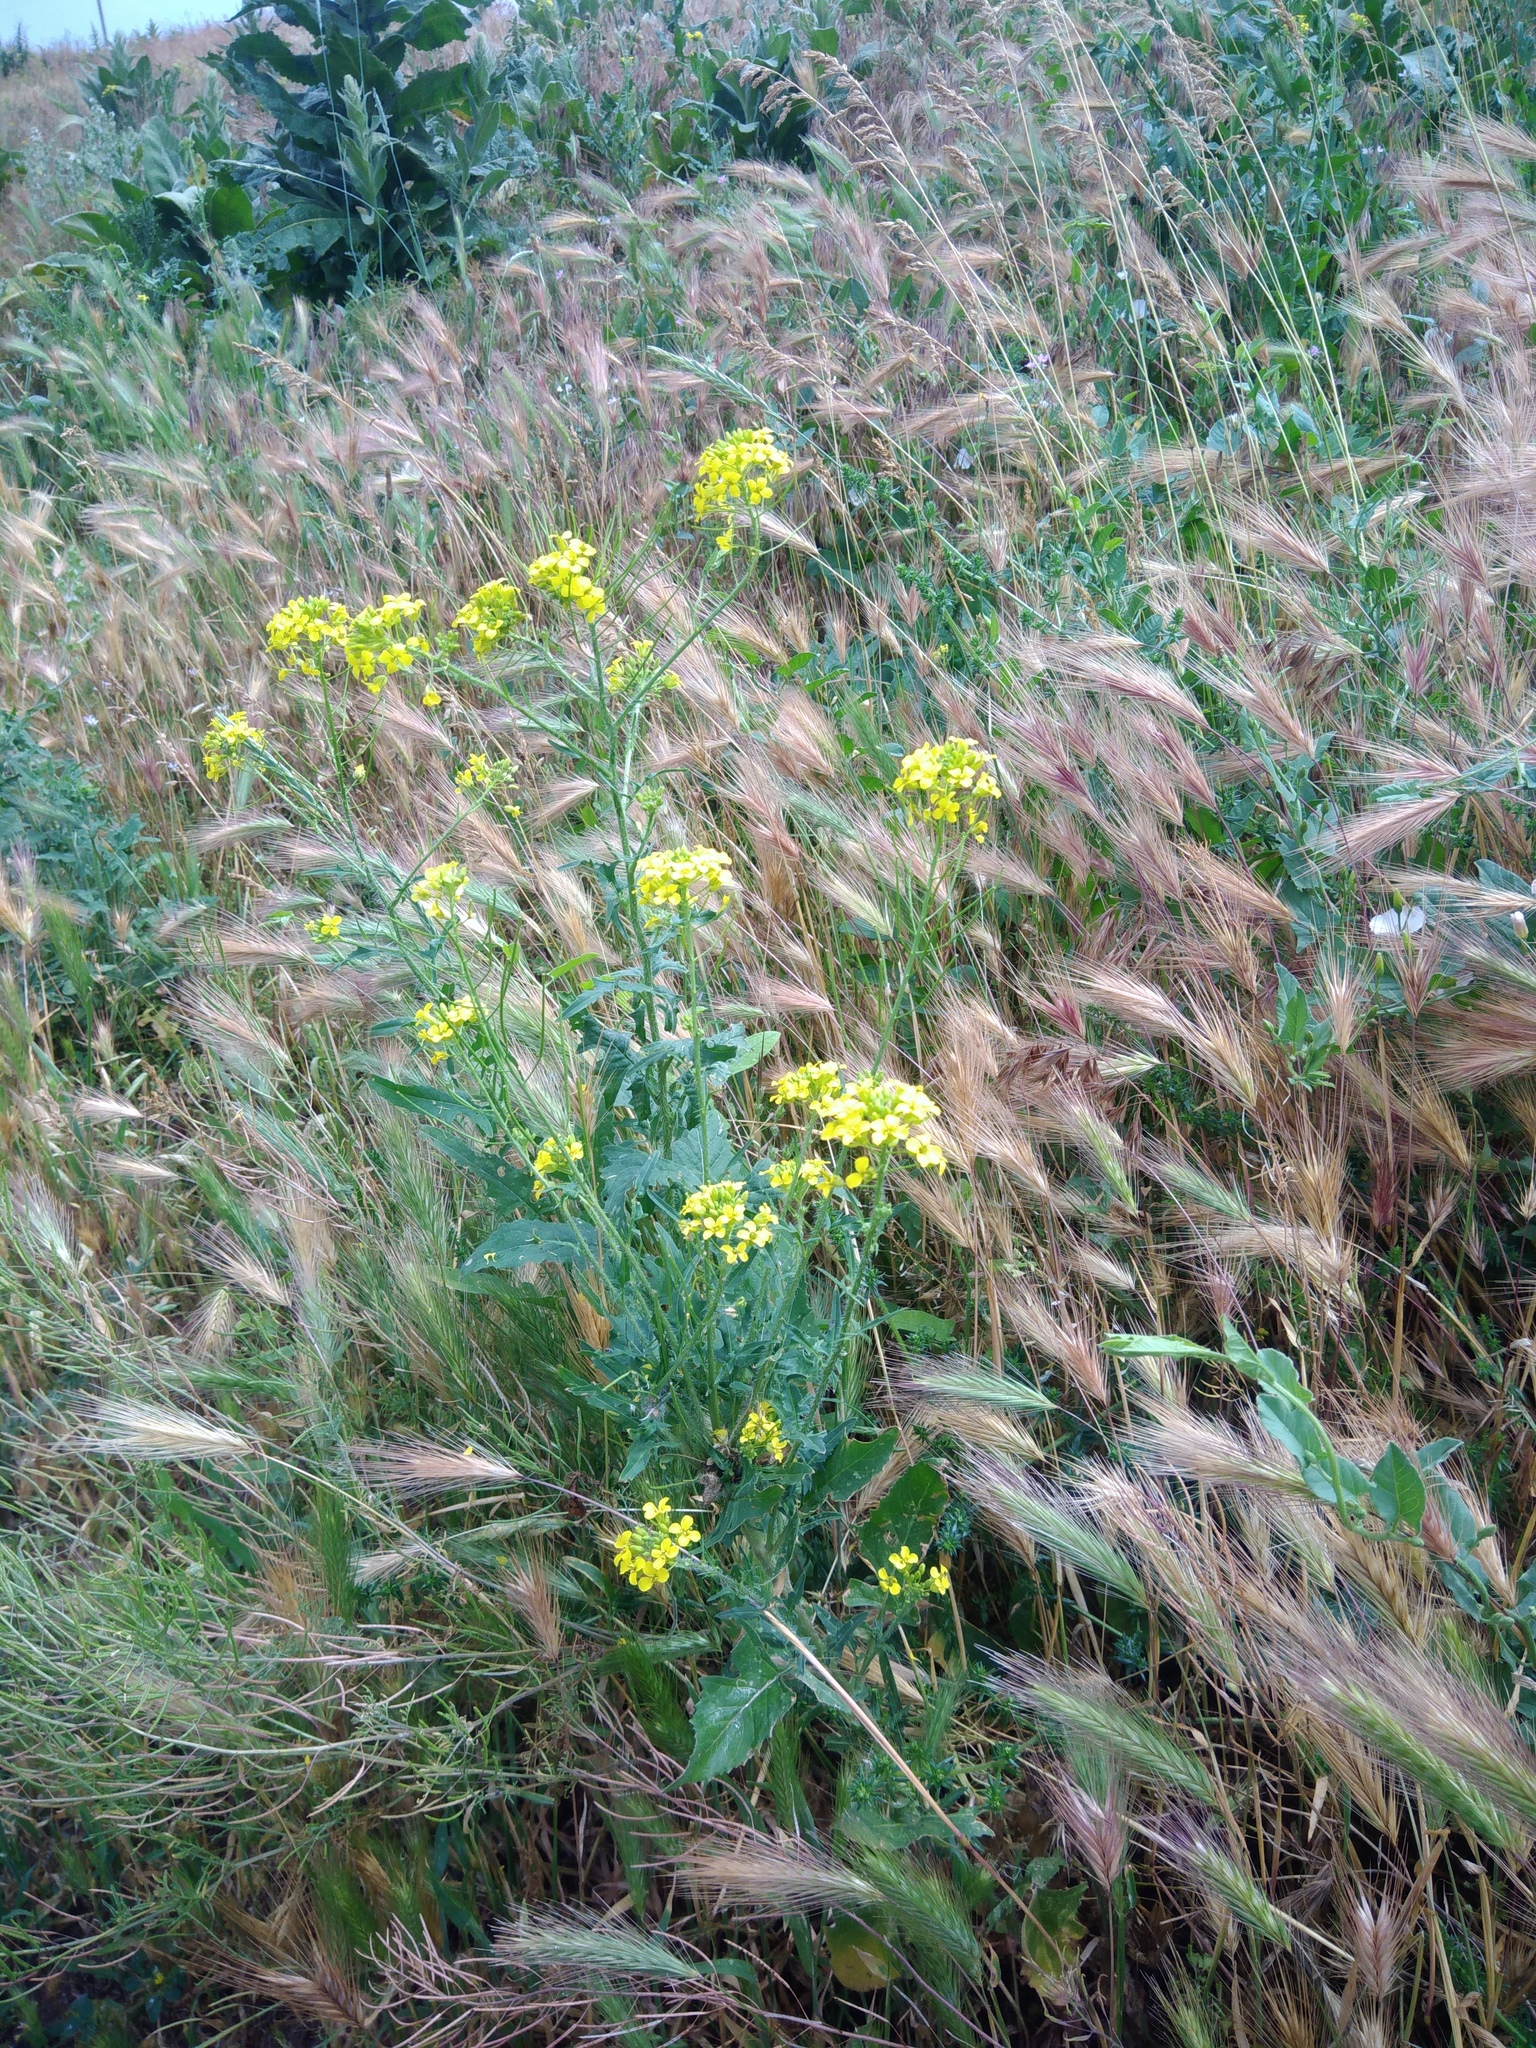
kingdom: Plantae
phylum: Tracheophyta
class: Magnoliopsida
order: Brassicales
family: Brassicaceae
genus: Sisymbrium
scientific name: Sisymbrium loeselii
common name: False london-rocket
